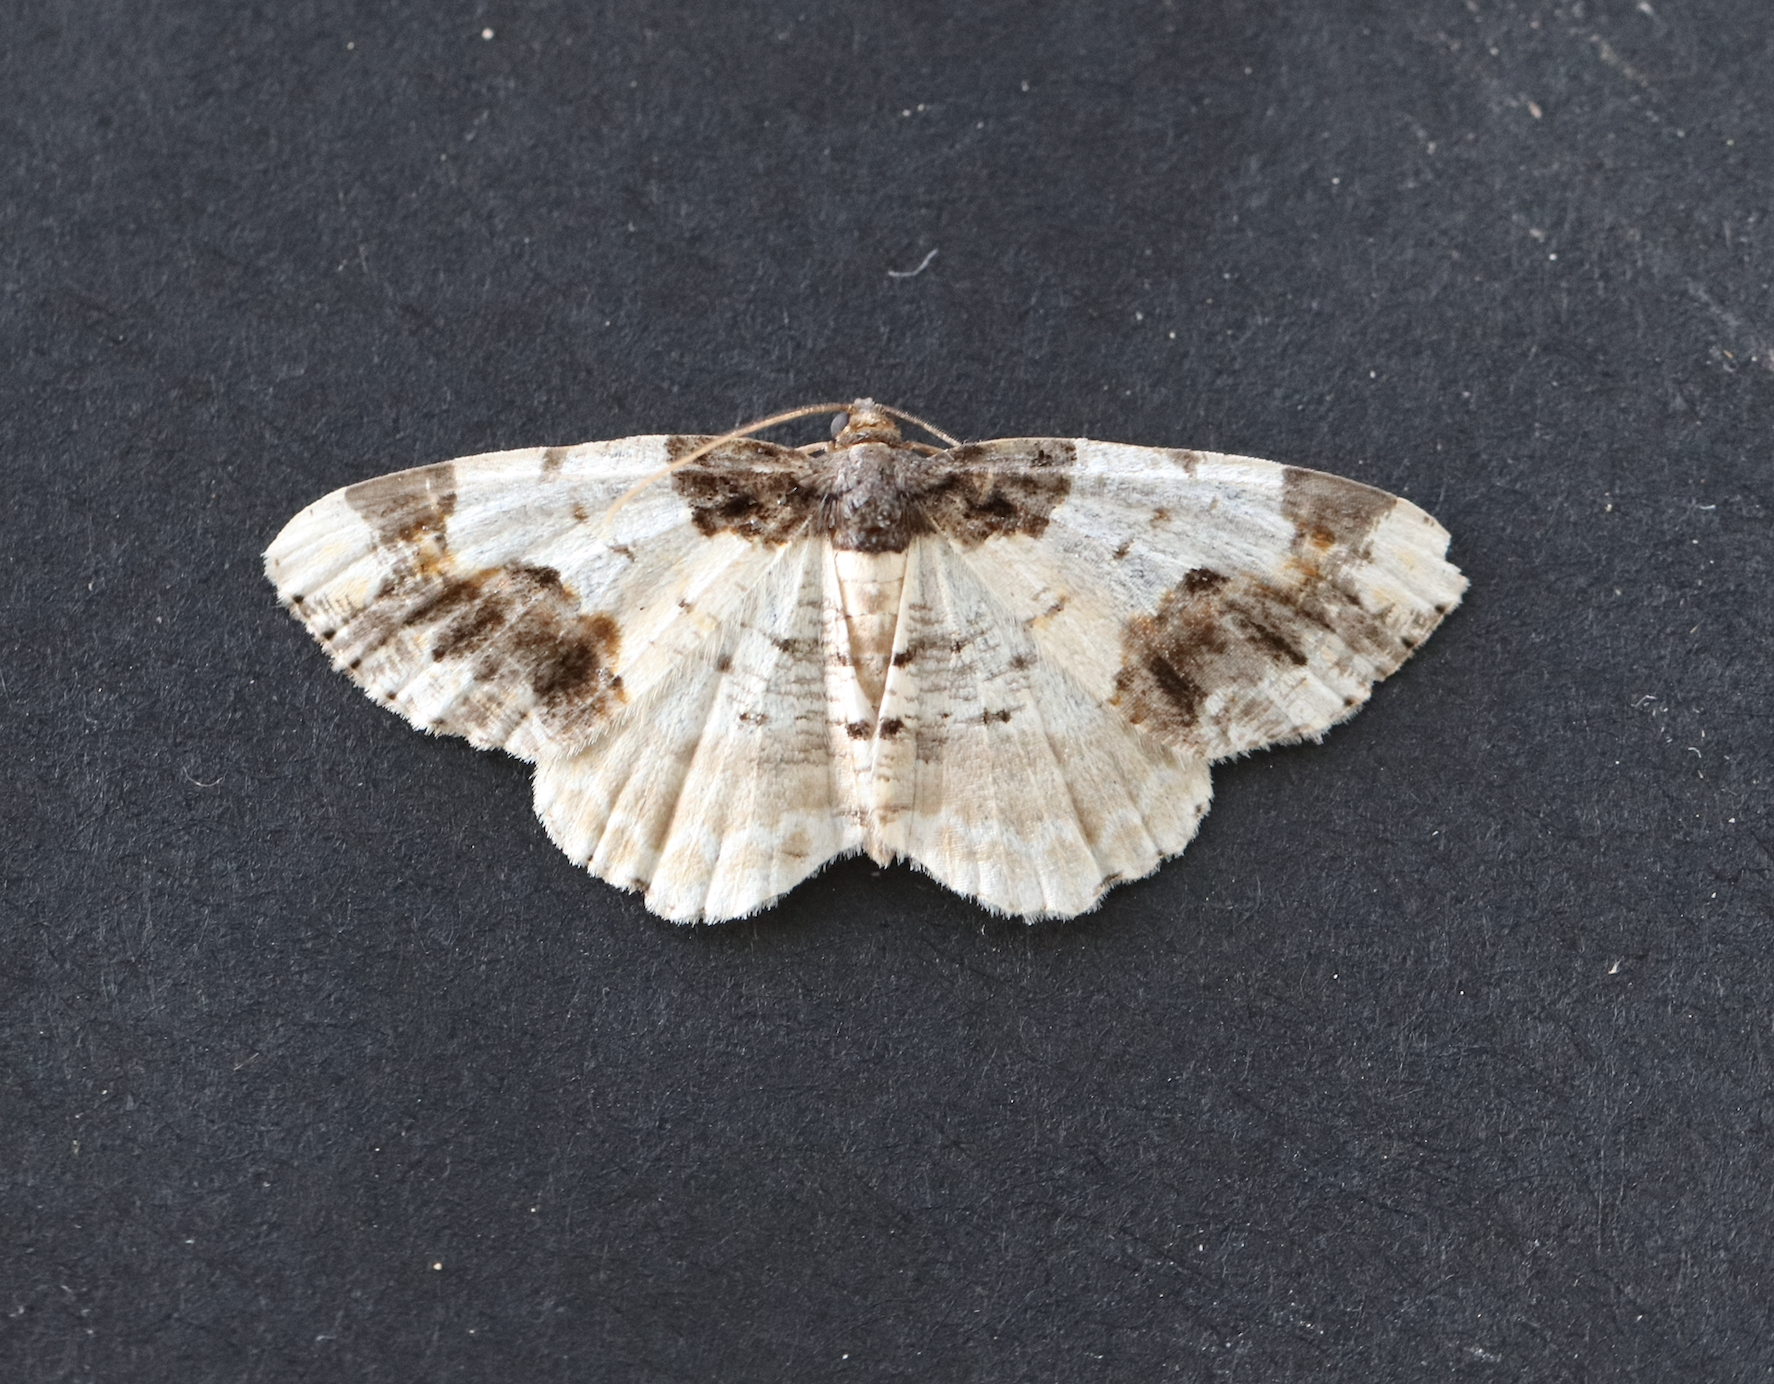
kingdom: Animalia
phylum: Arthropoda
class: Insecta
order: Lepidoptera
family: Geometridae
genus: Ligdia
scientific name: Ligdia adustata
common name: Scorched carpet
